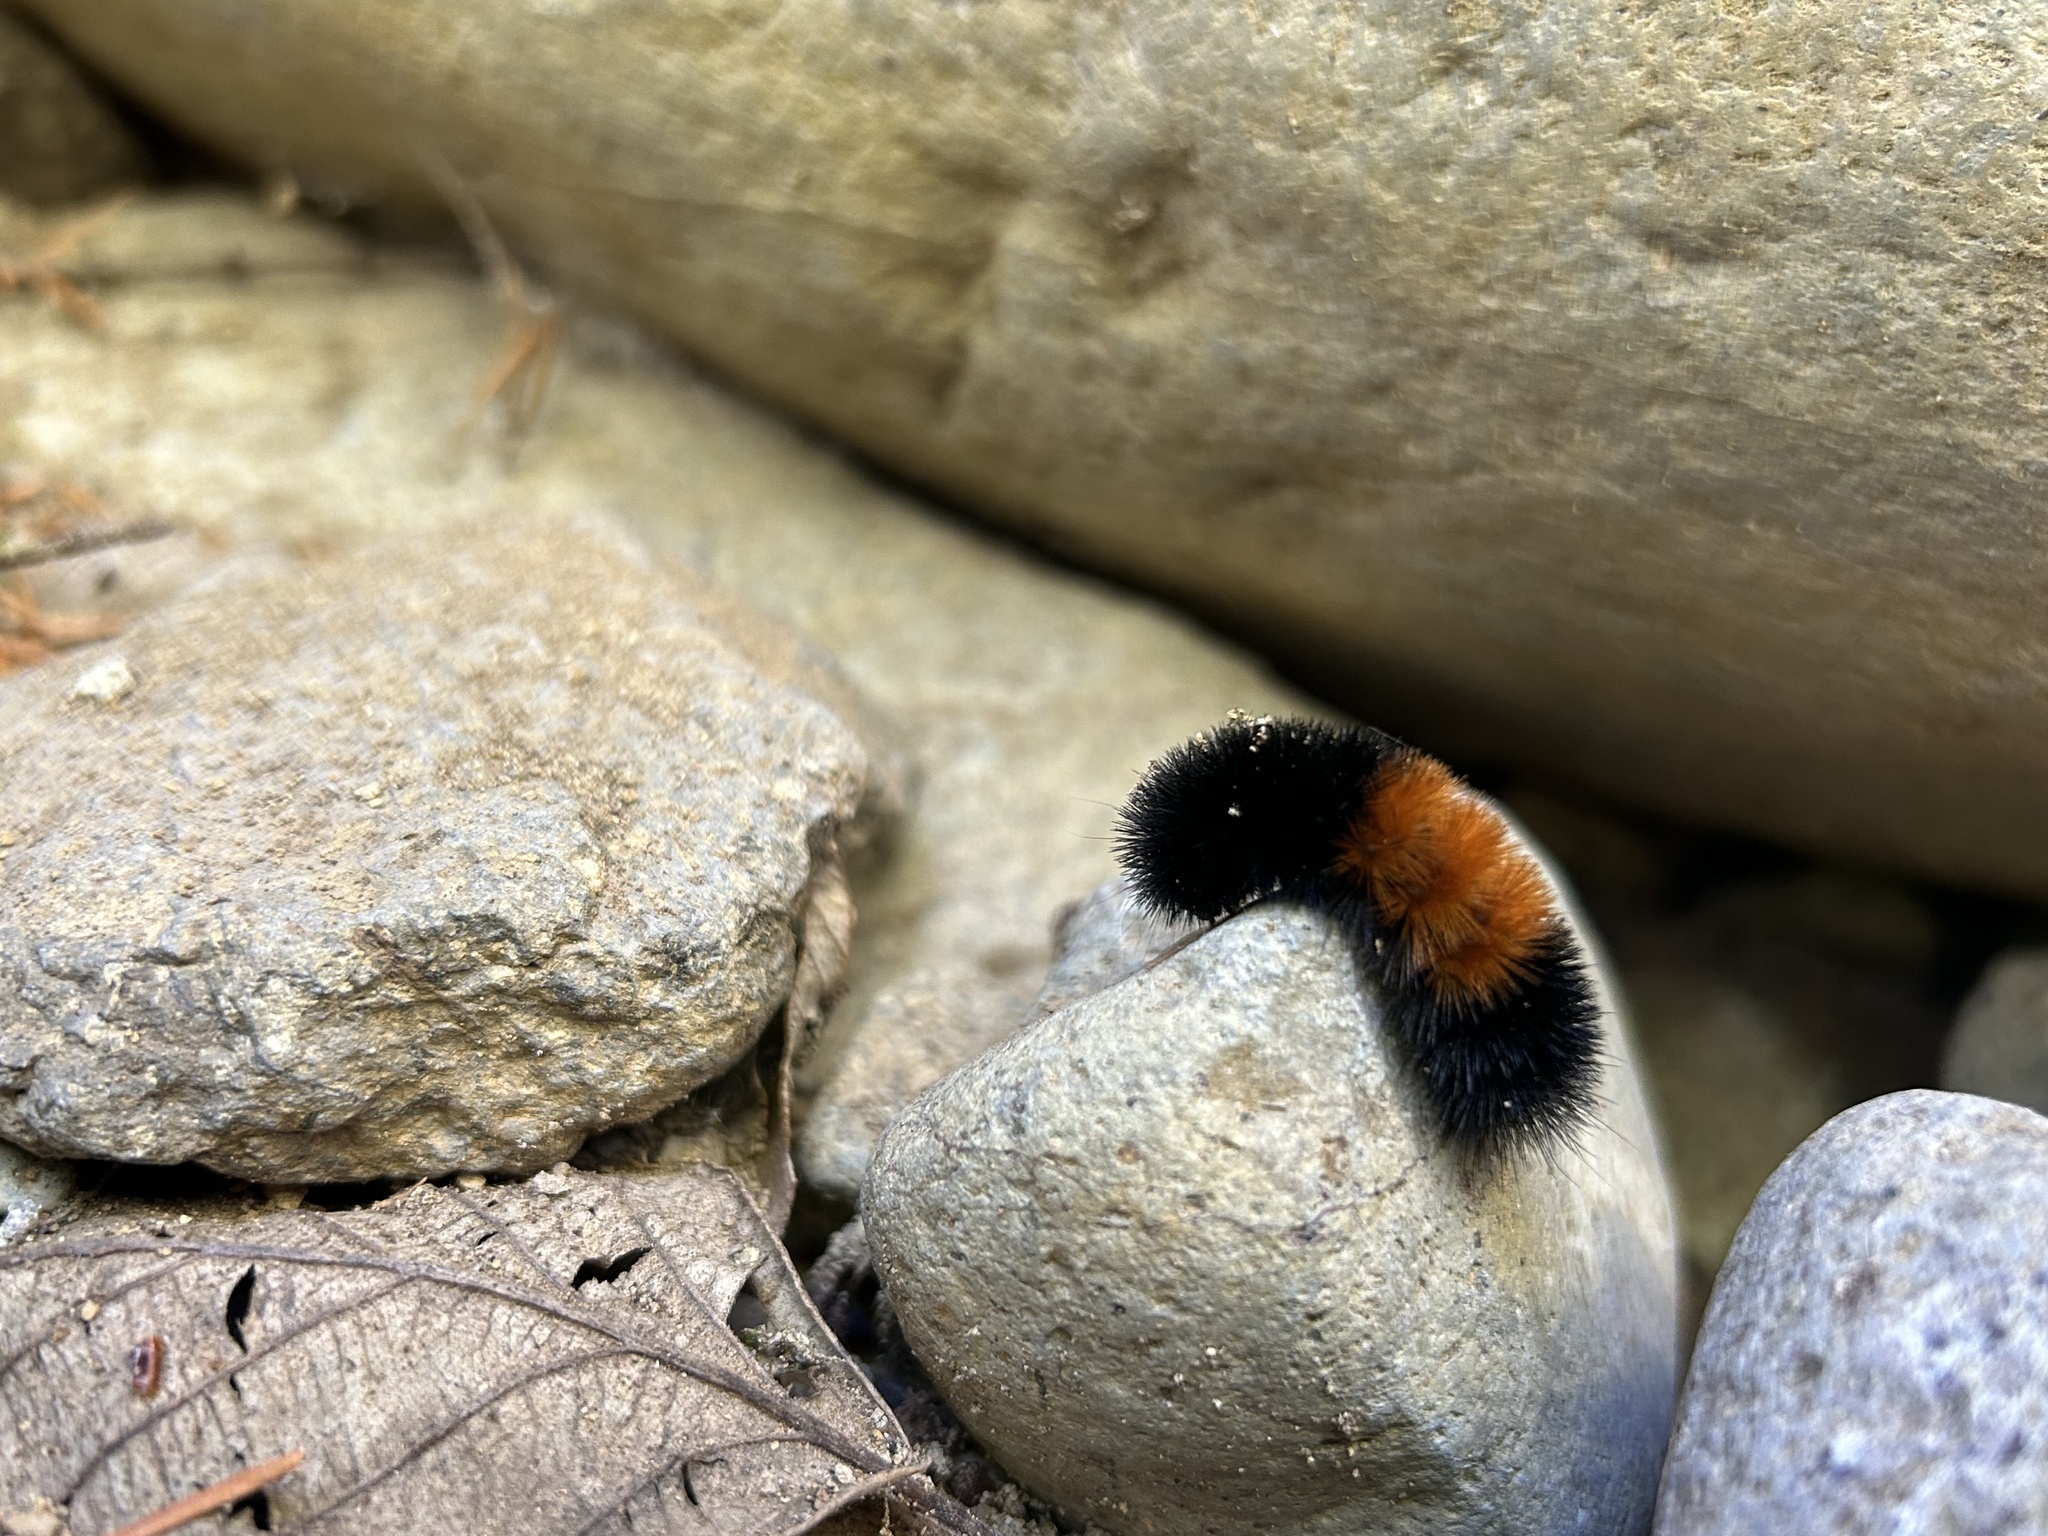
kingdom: Animalia
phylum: Arthropoda
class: Insecta
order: Lepidoptera
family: Erebidae
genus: Pyrrharctia
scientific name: Pyrrharctia isabella
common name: Isabella tiger moth
